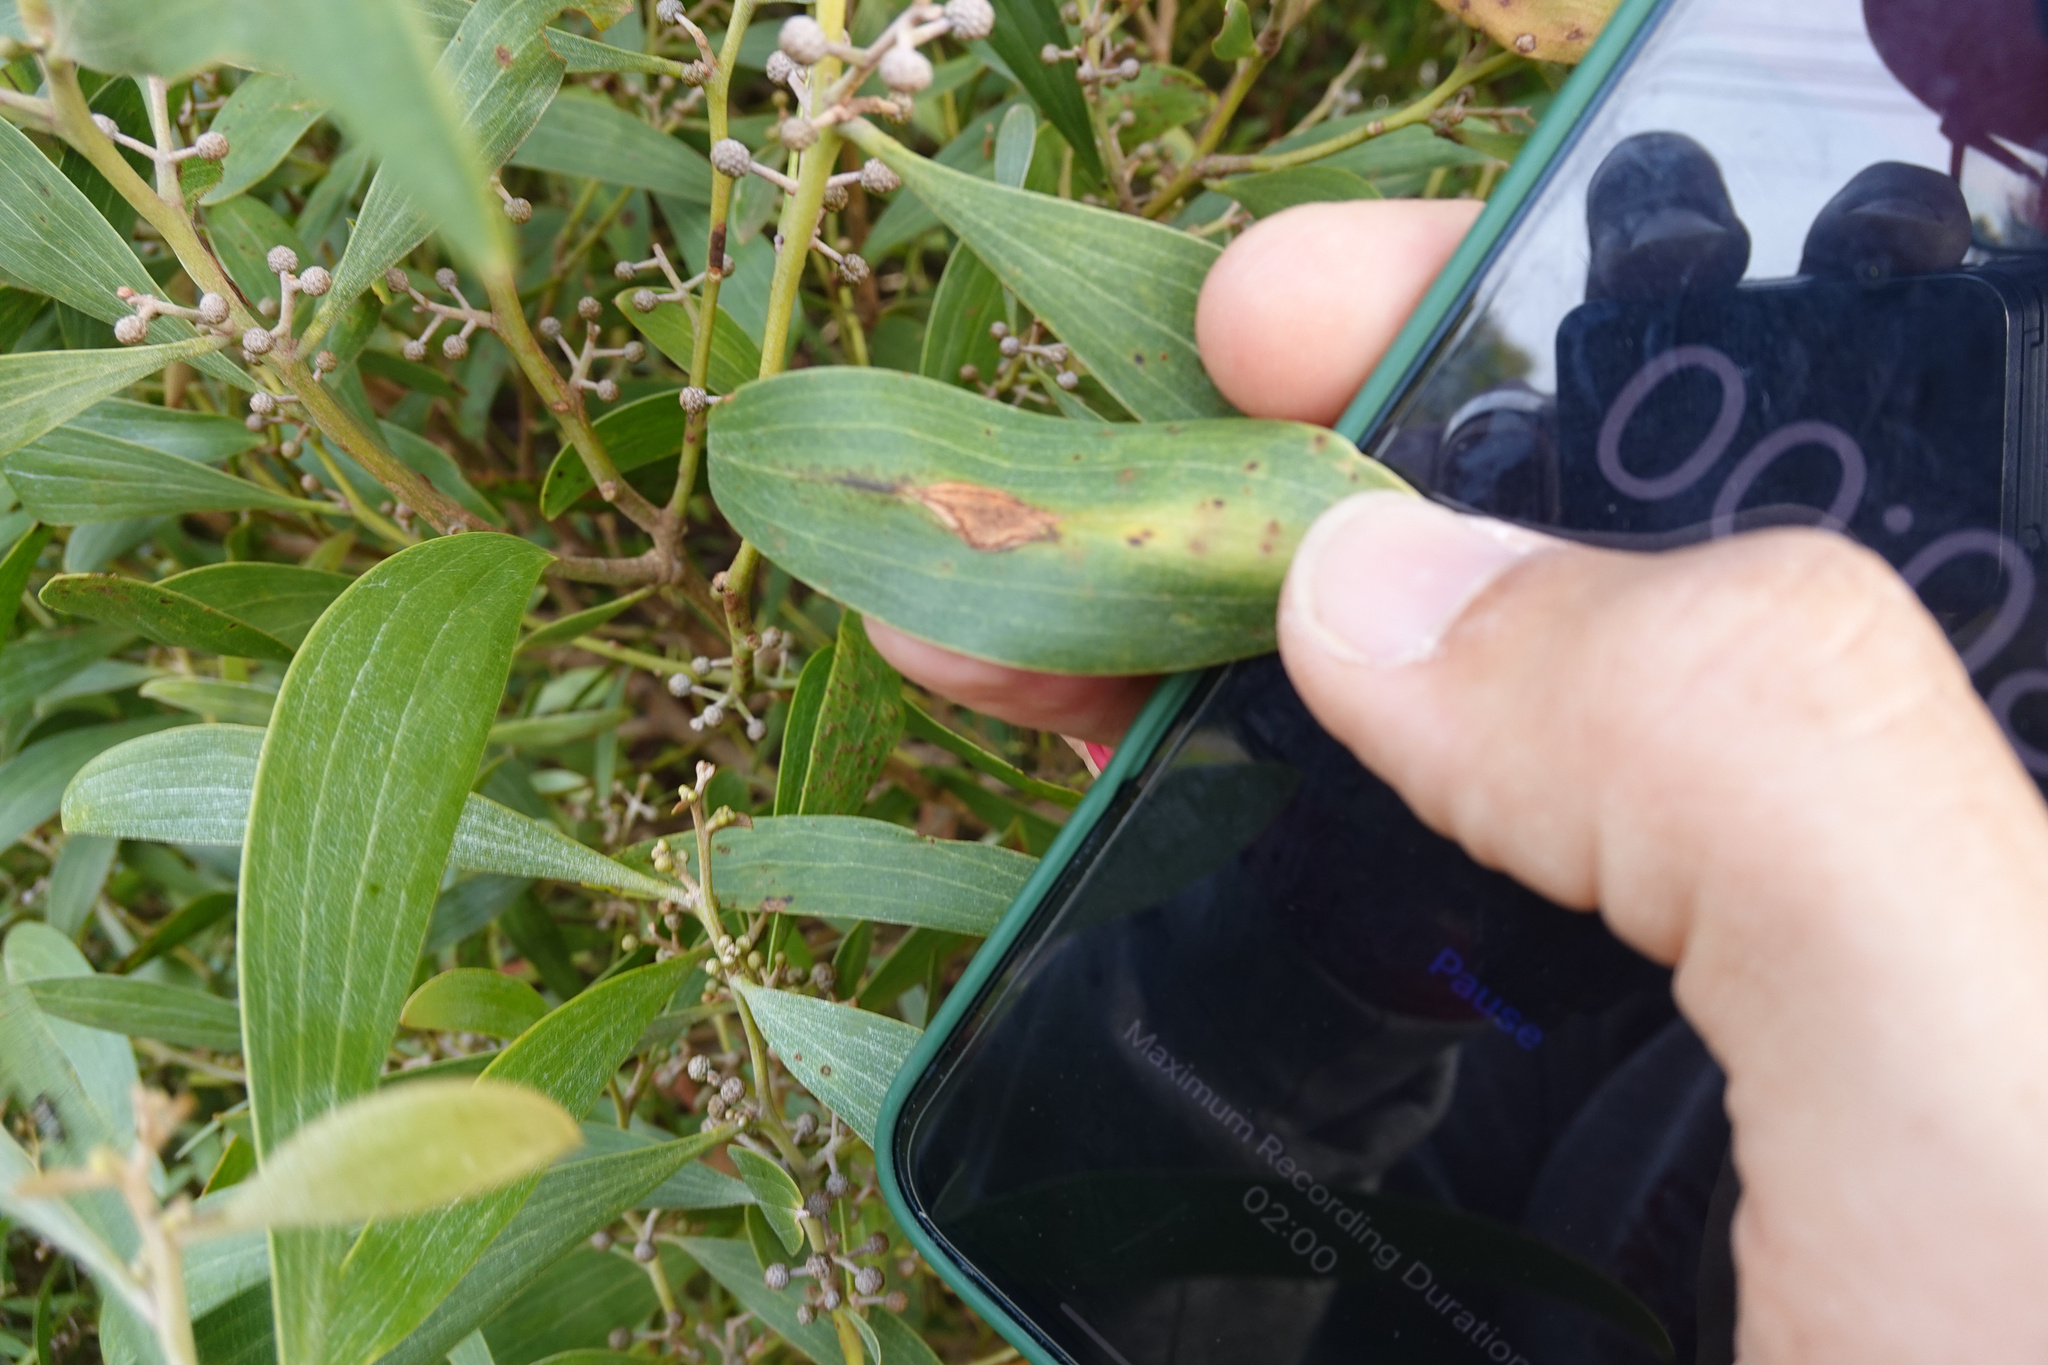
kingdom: Fungi
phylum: Basidiomycota
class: Pucciniomycetes
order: Pucciniales
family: Uromycladiaceae
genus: Uromycladium
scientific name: Uromycladium robinsonii
